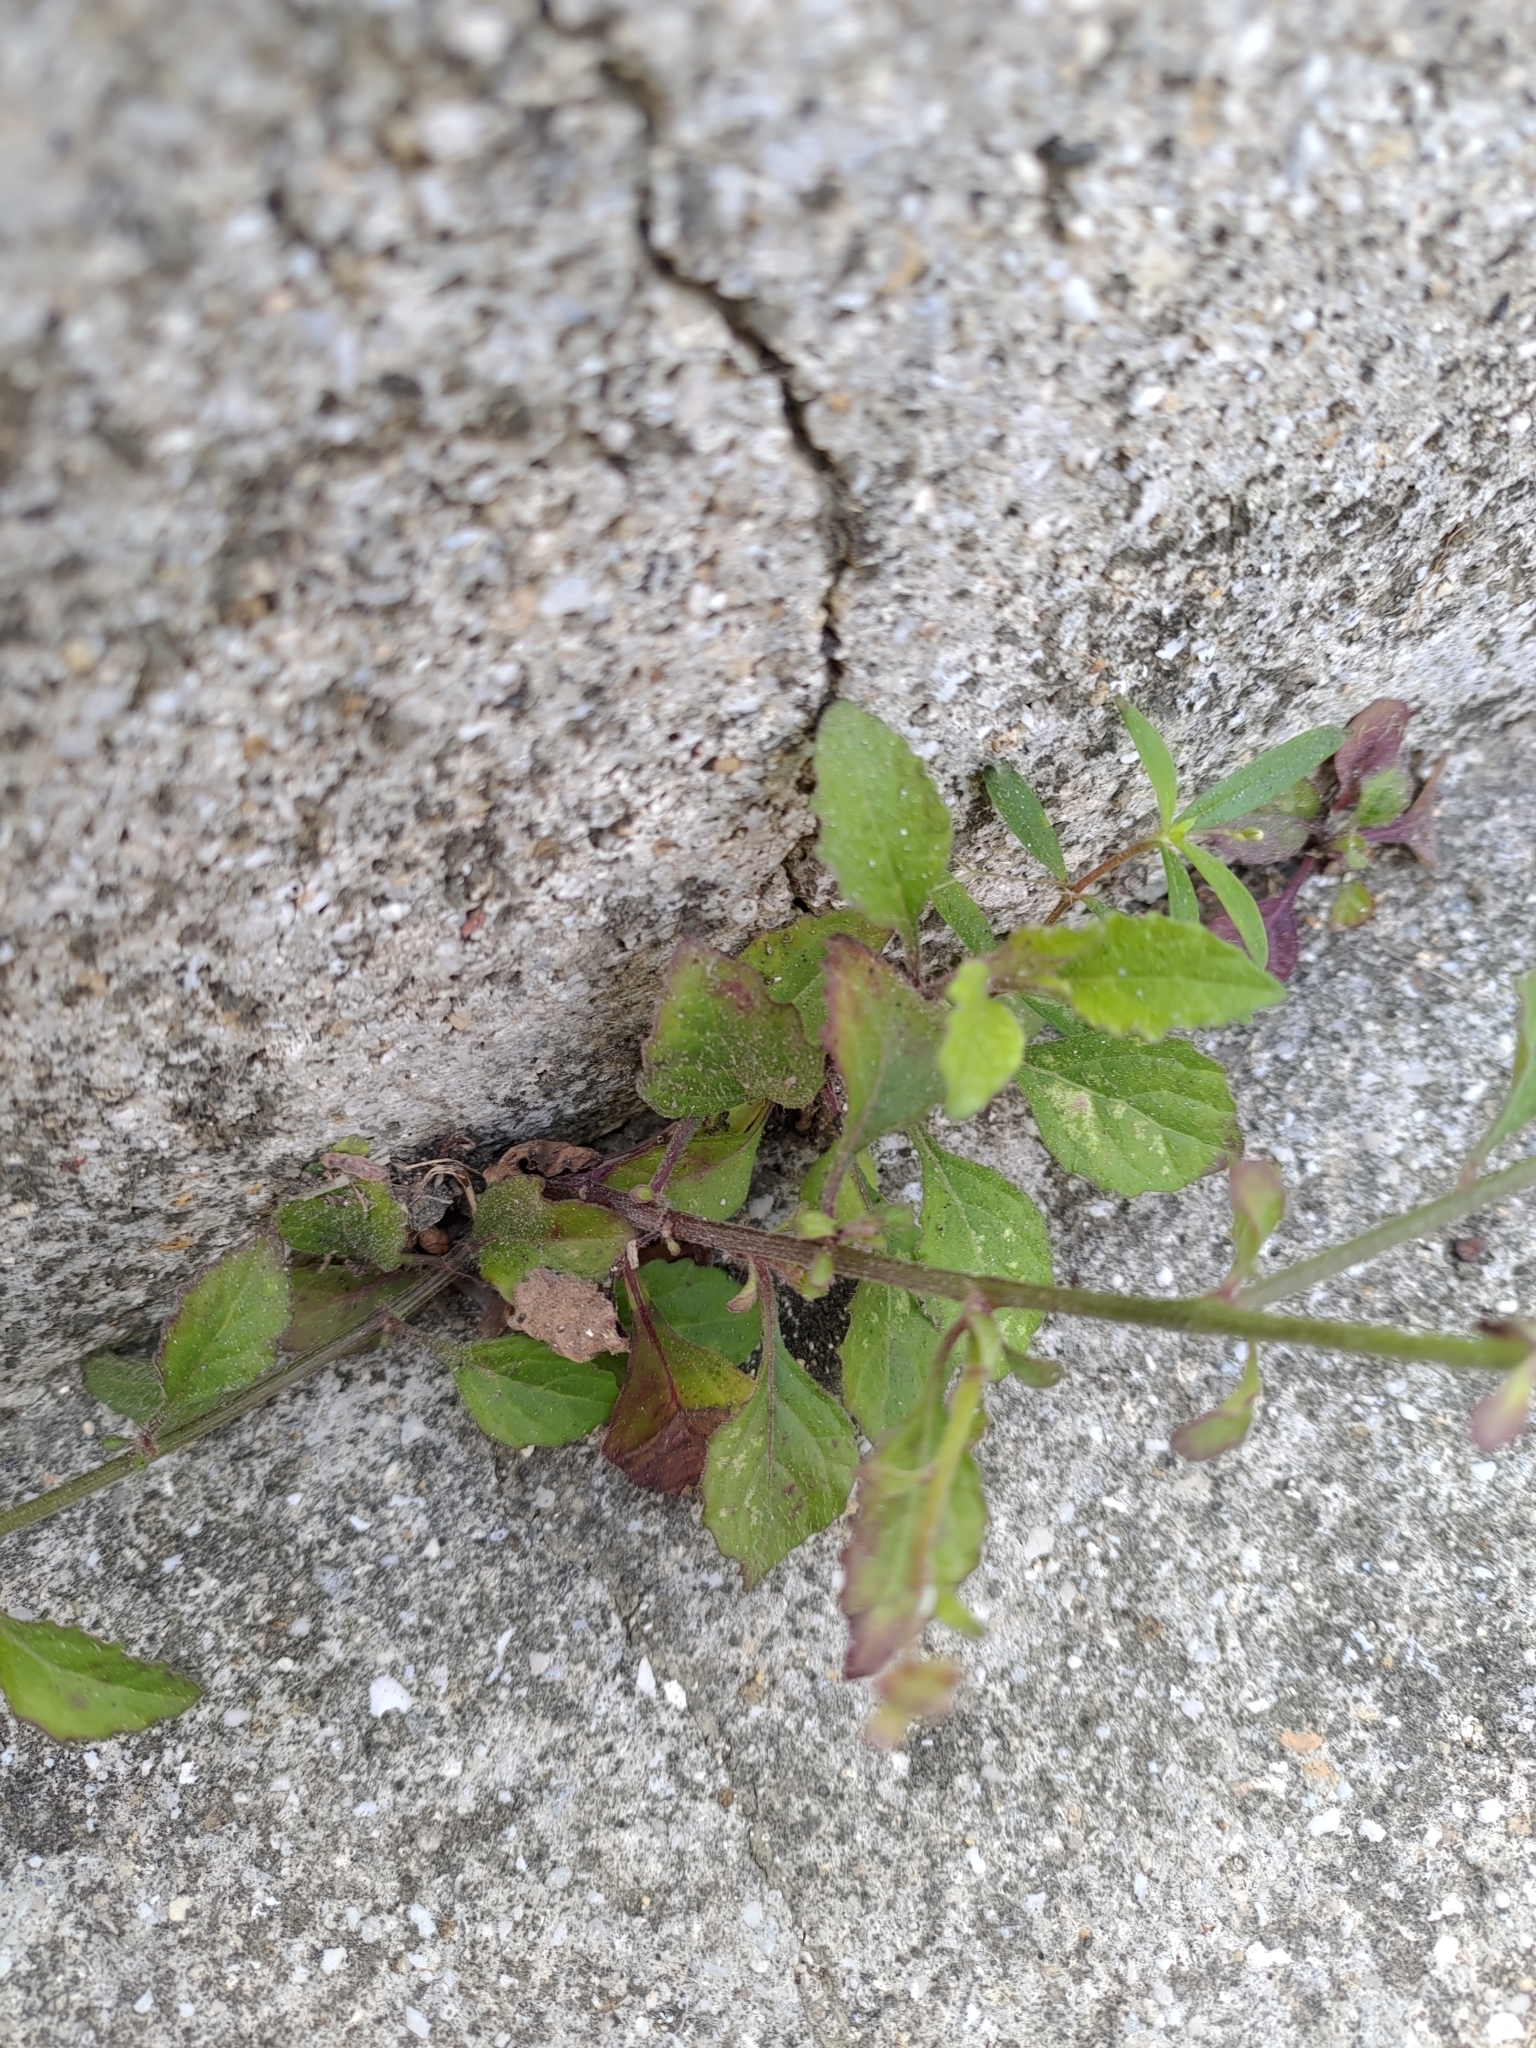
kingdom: Plantae
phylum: Tracheophyta
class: Magnoliopsida
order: Asterales
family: Asteraceae
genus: Cyanthillium
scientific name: Cyanthillium cinereum
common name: Little ironweed
